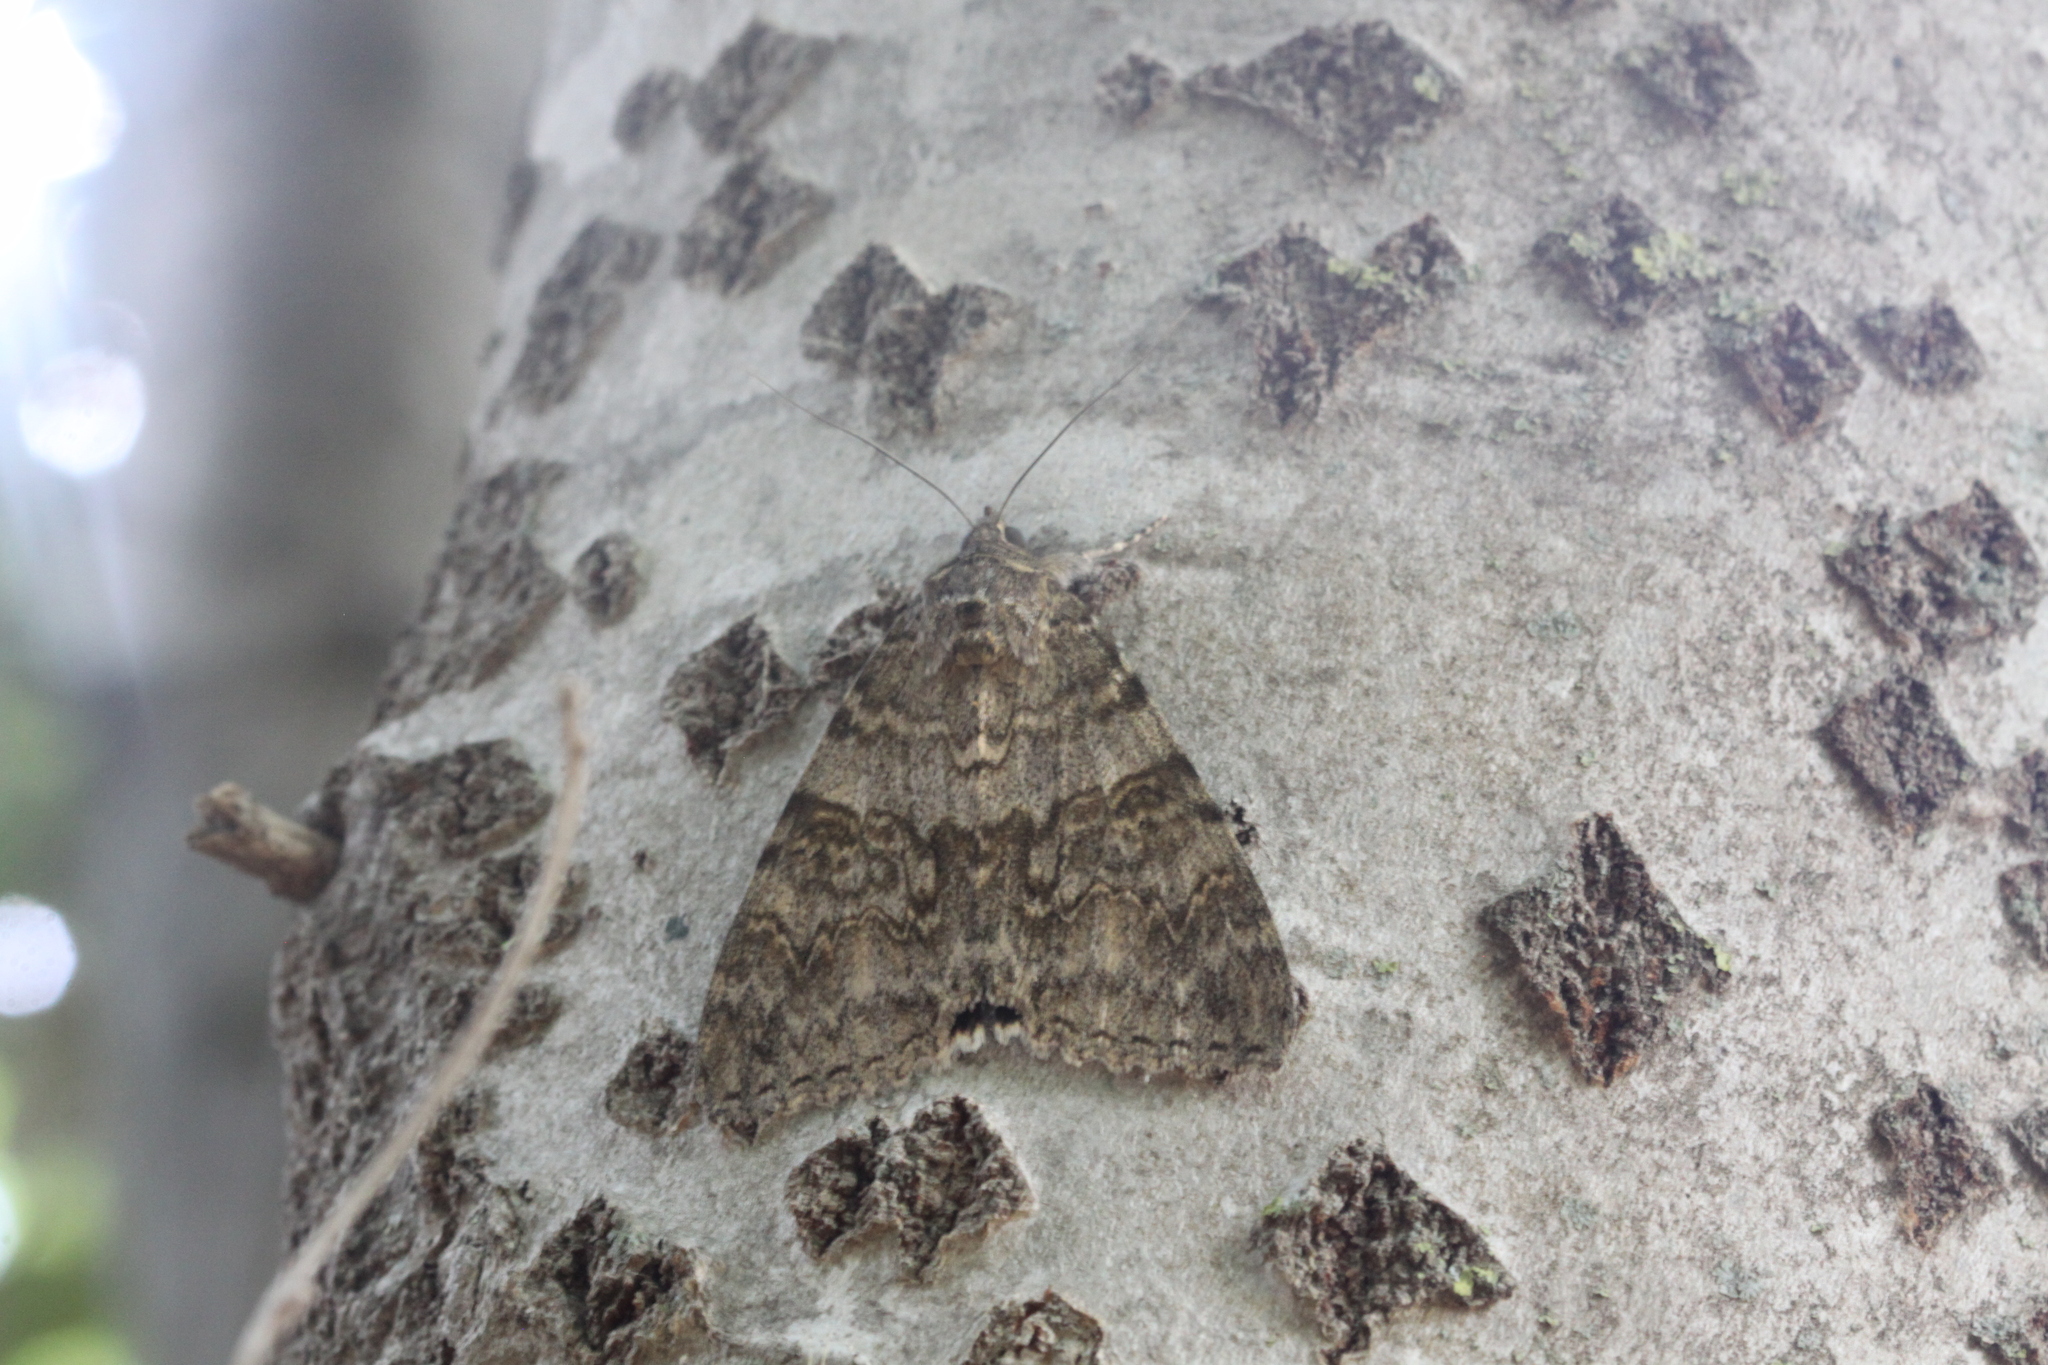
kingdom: Animalia
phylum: Arthropoda
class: Insecta
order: Lepidoptera
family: Erebidae
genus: Catocala
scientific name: Catocala nupta
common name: Red underwing
